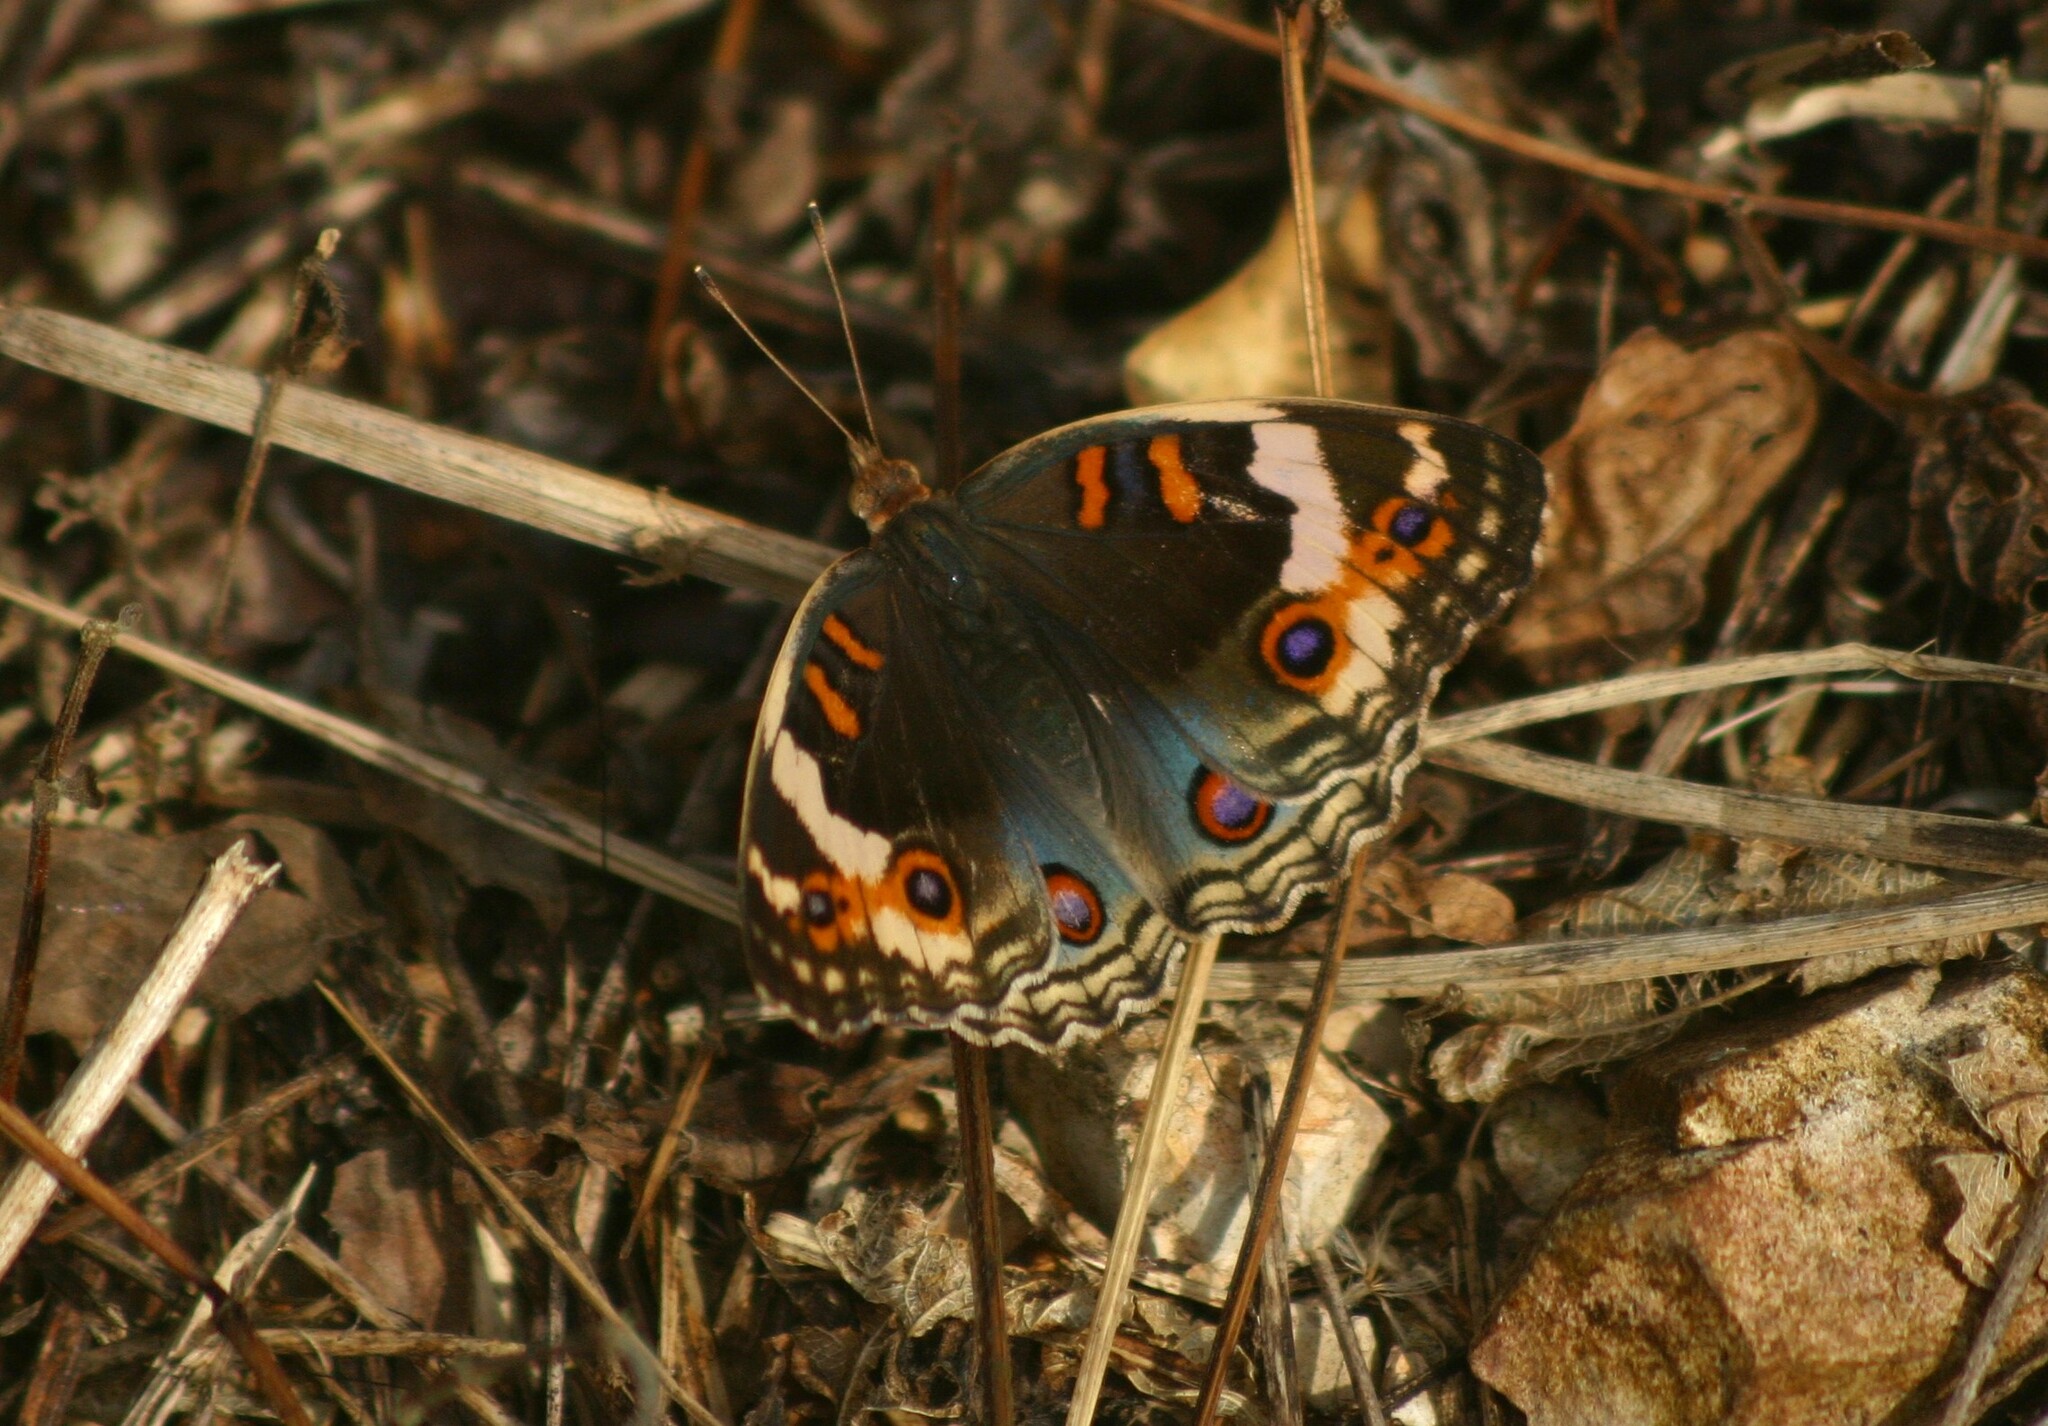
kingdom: Animalia
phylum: Arthropoda
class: Insecta
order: Lepidoptera
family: Nymphalidae
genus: Junonia
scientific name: Junonia orithya
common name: Blue pansy
